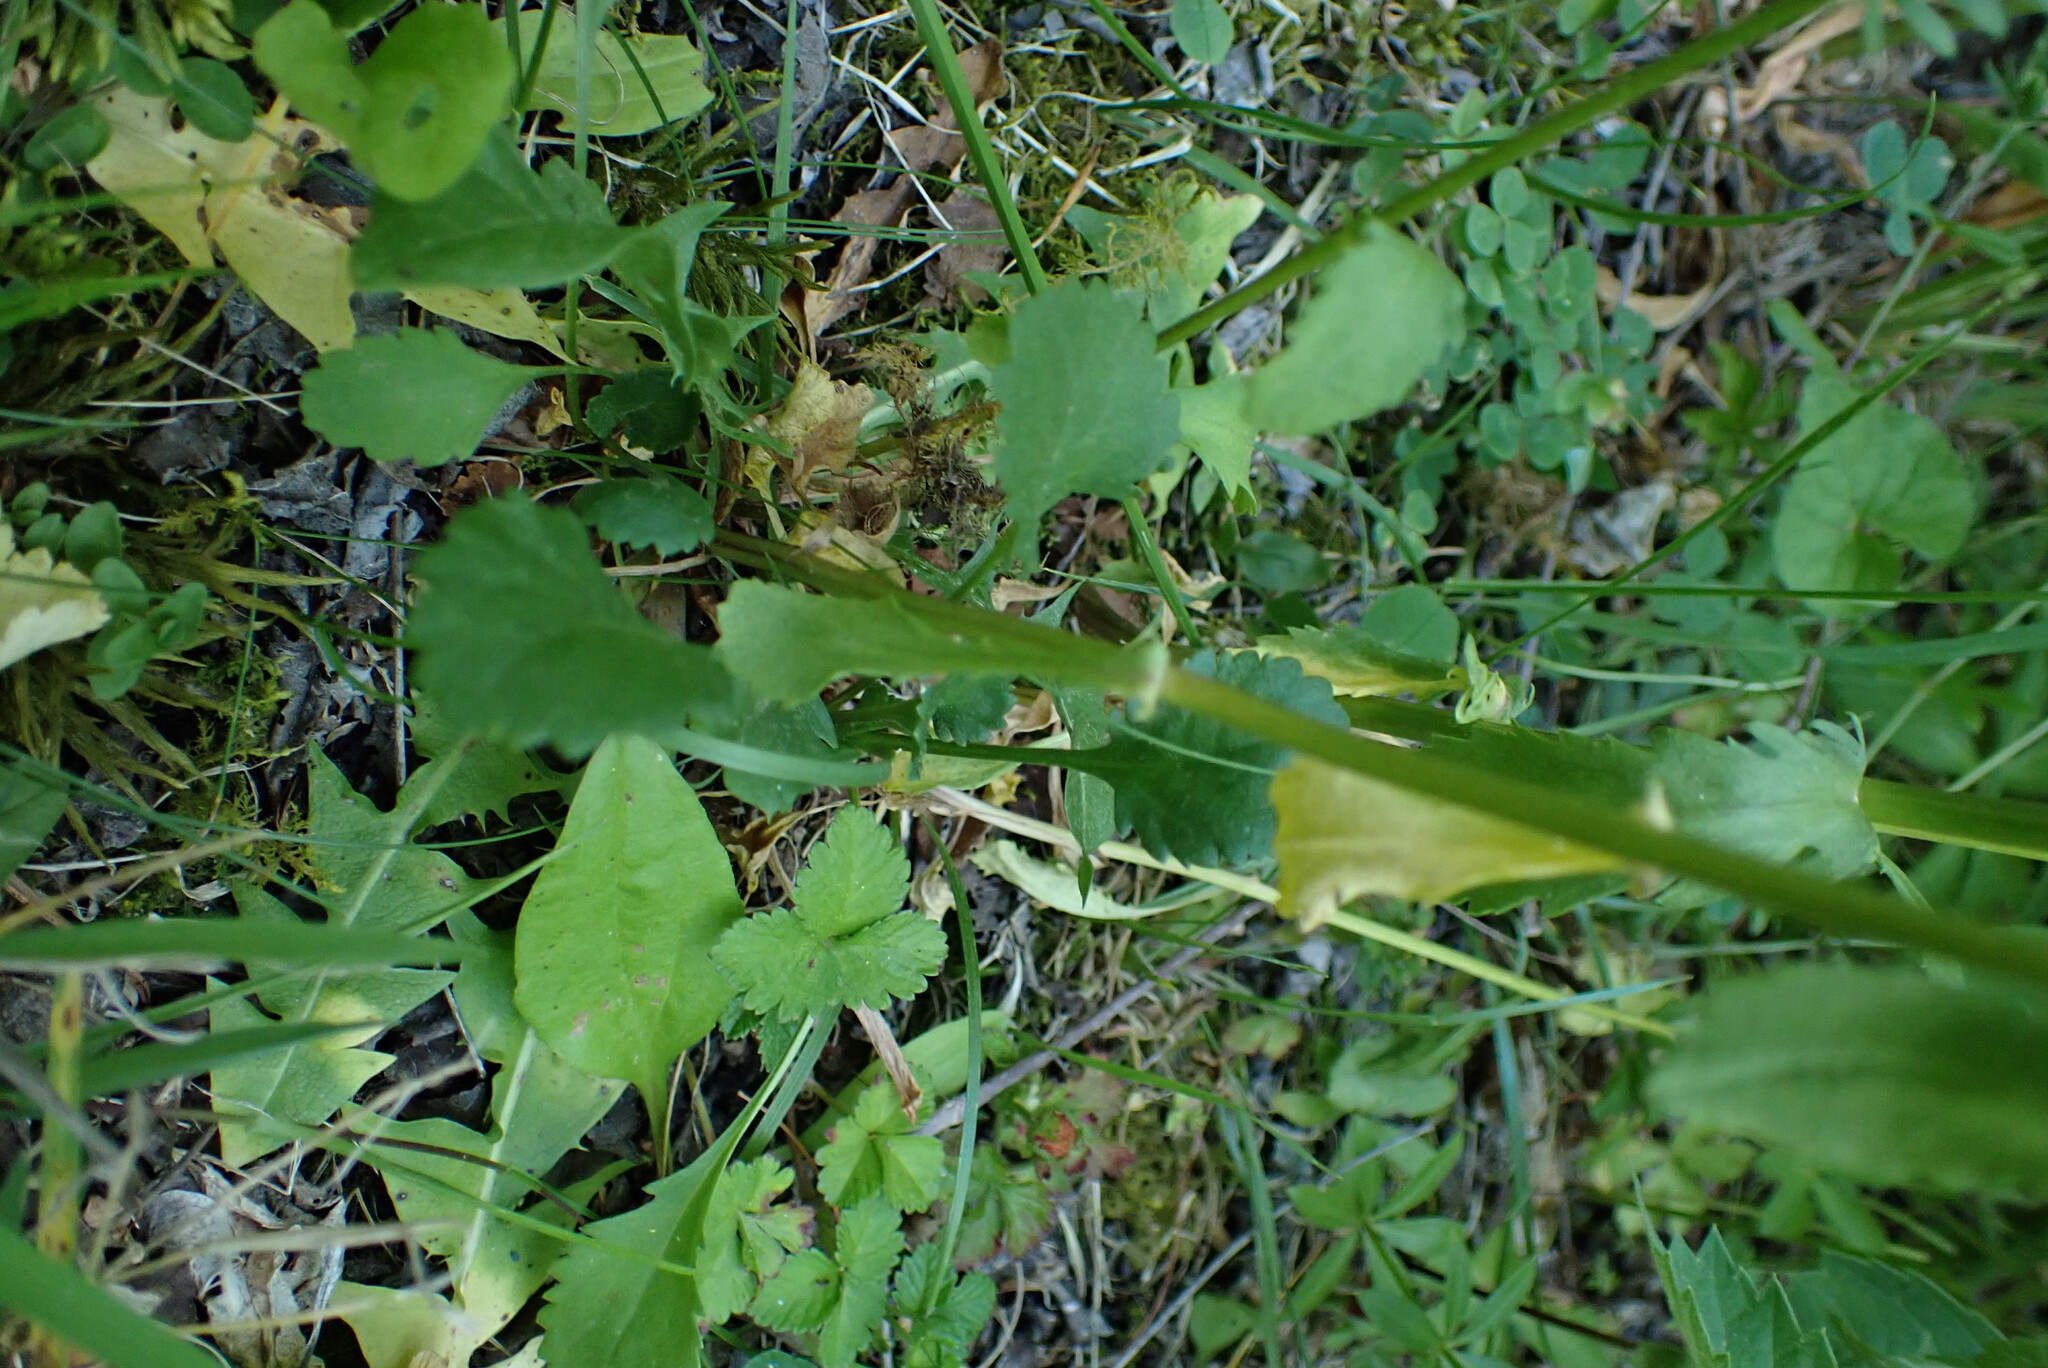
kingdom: Plantae
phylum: Tracheophyta
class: Magnoliopsida
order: Asterales
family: Asteraceae
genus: Leucanthemum
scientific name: Leucanthemum vulgare
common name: Oxeye daisy
